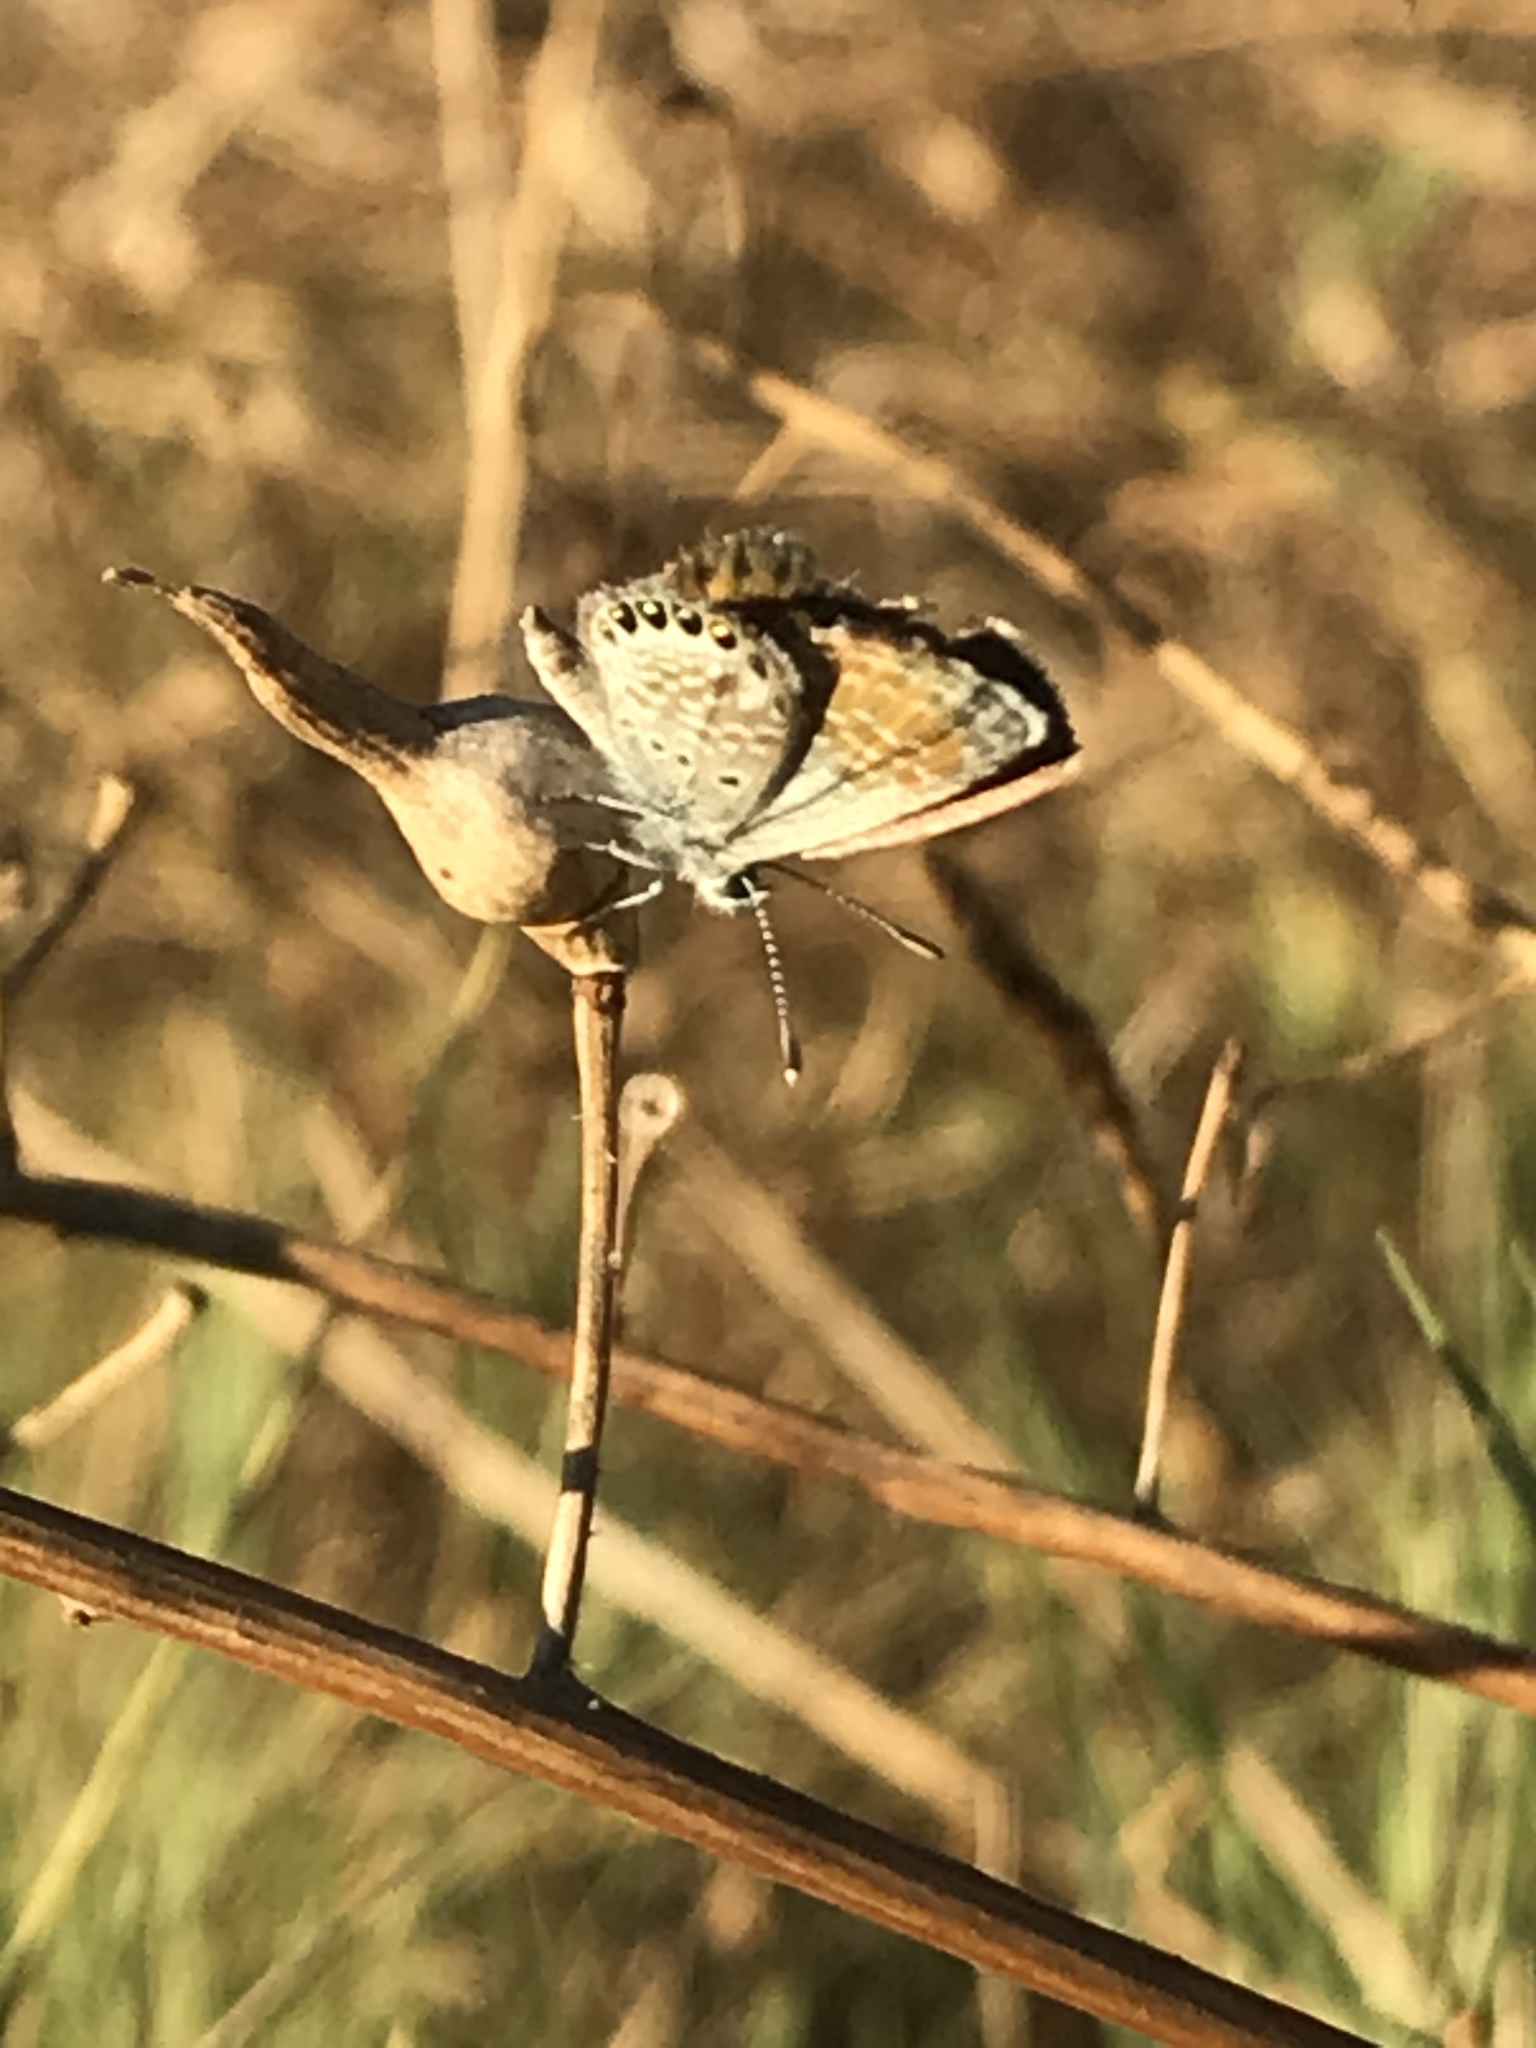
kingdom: Animalia
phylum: Arthropoda
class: Insecta
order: Lepidoptera
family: Lycaenidae
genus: Brephidium
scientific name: Brephidium exilis
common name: Pygmy blue
